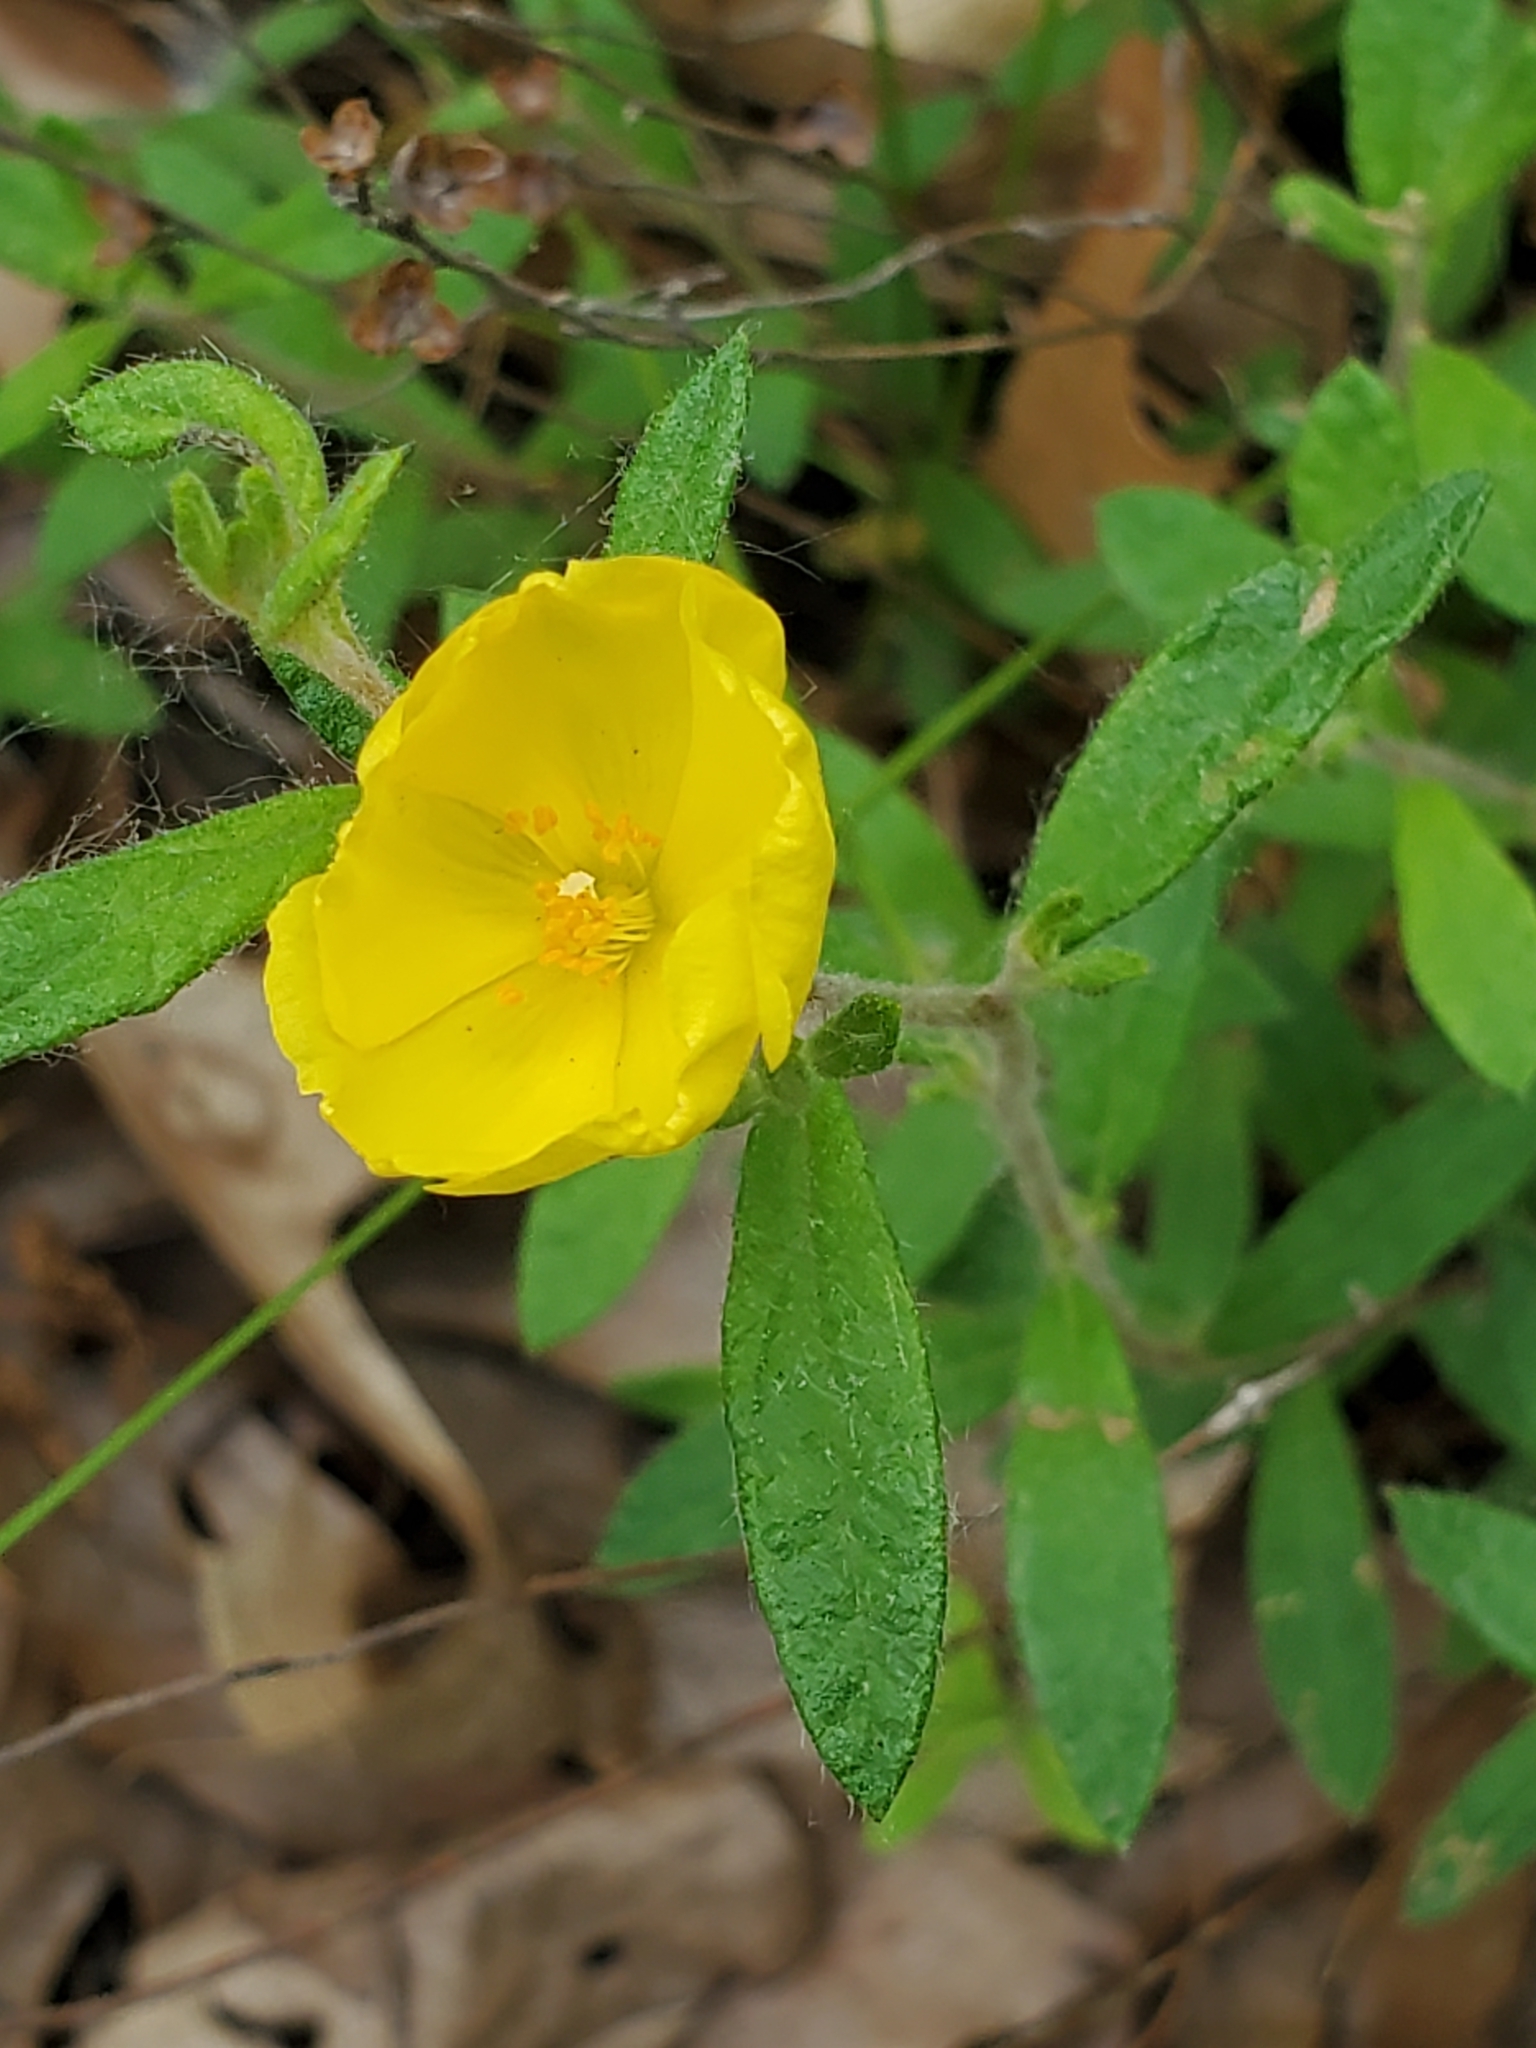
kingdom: Plantae
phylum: Tracheophyta
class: Magnoliopsida
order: Malvales
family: Cistaceae
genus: Crocanthemum
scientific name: Crocanthemum canadense
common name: Canada frostweed
